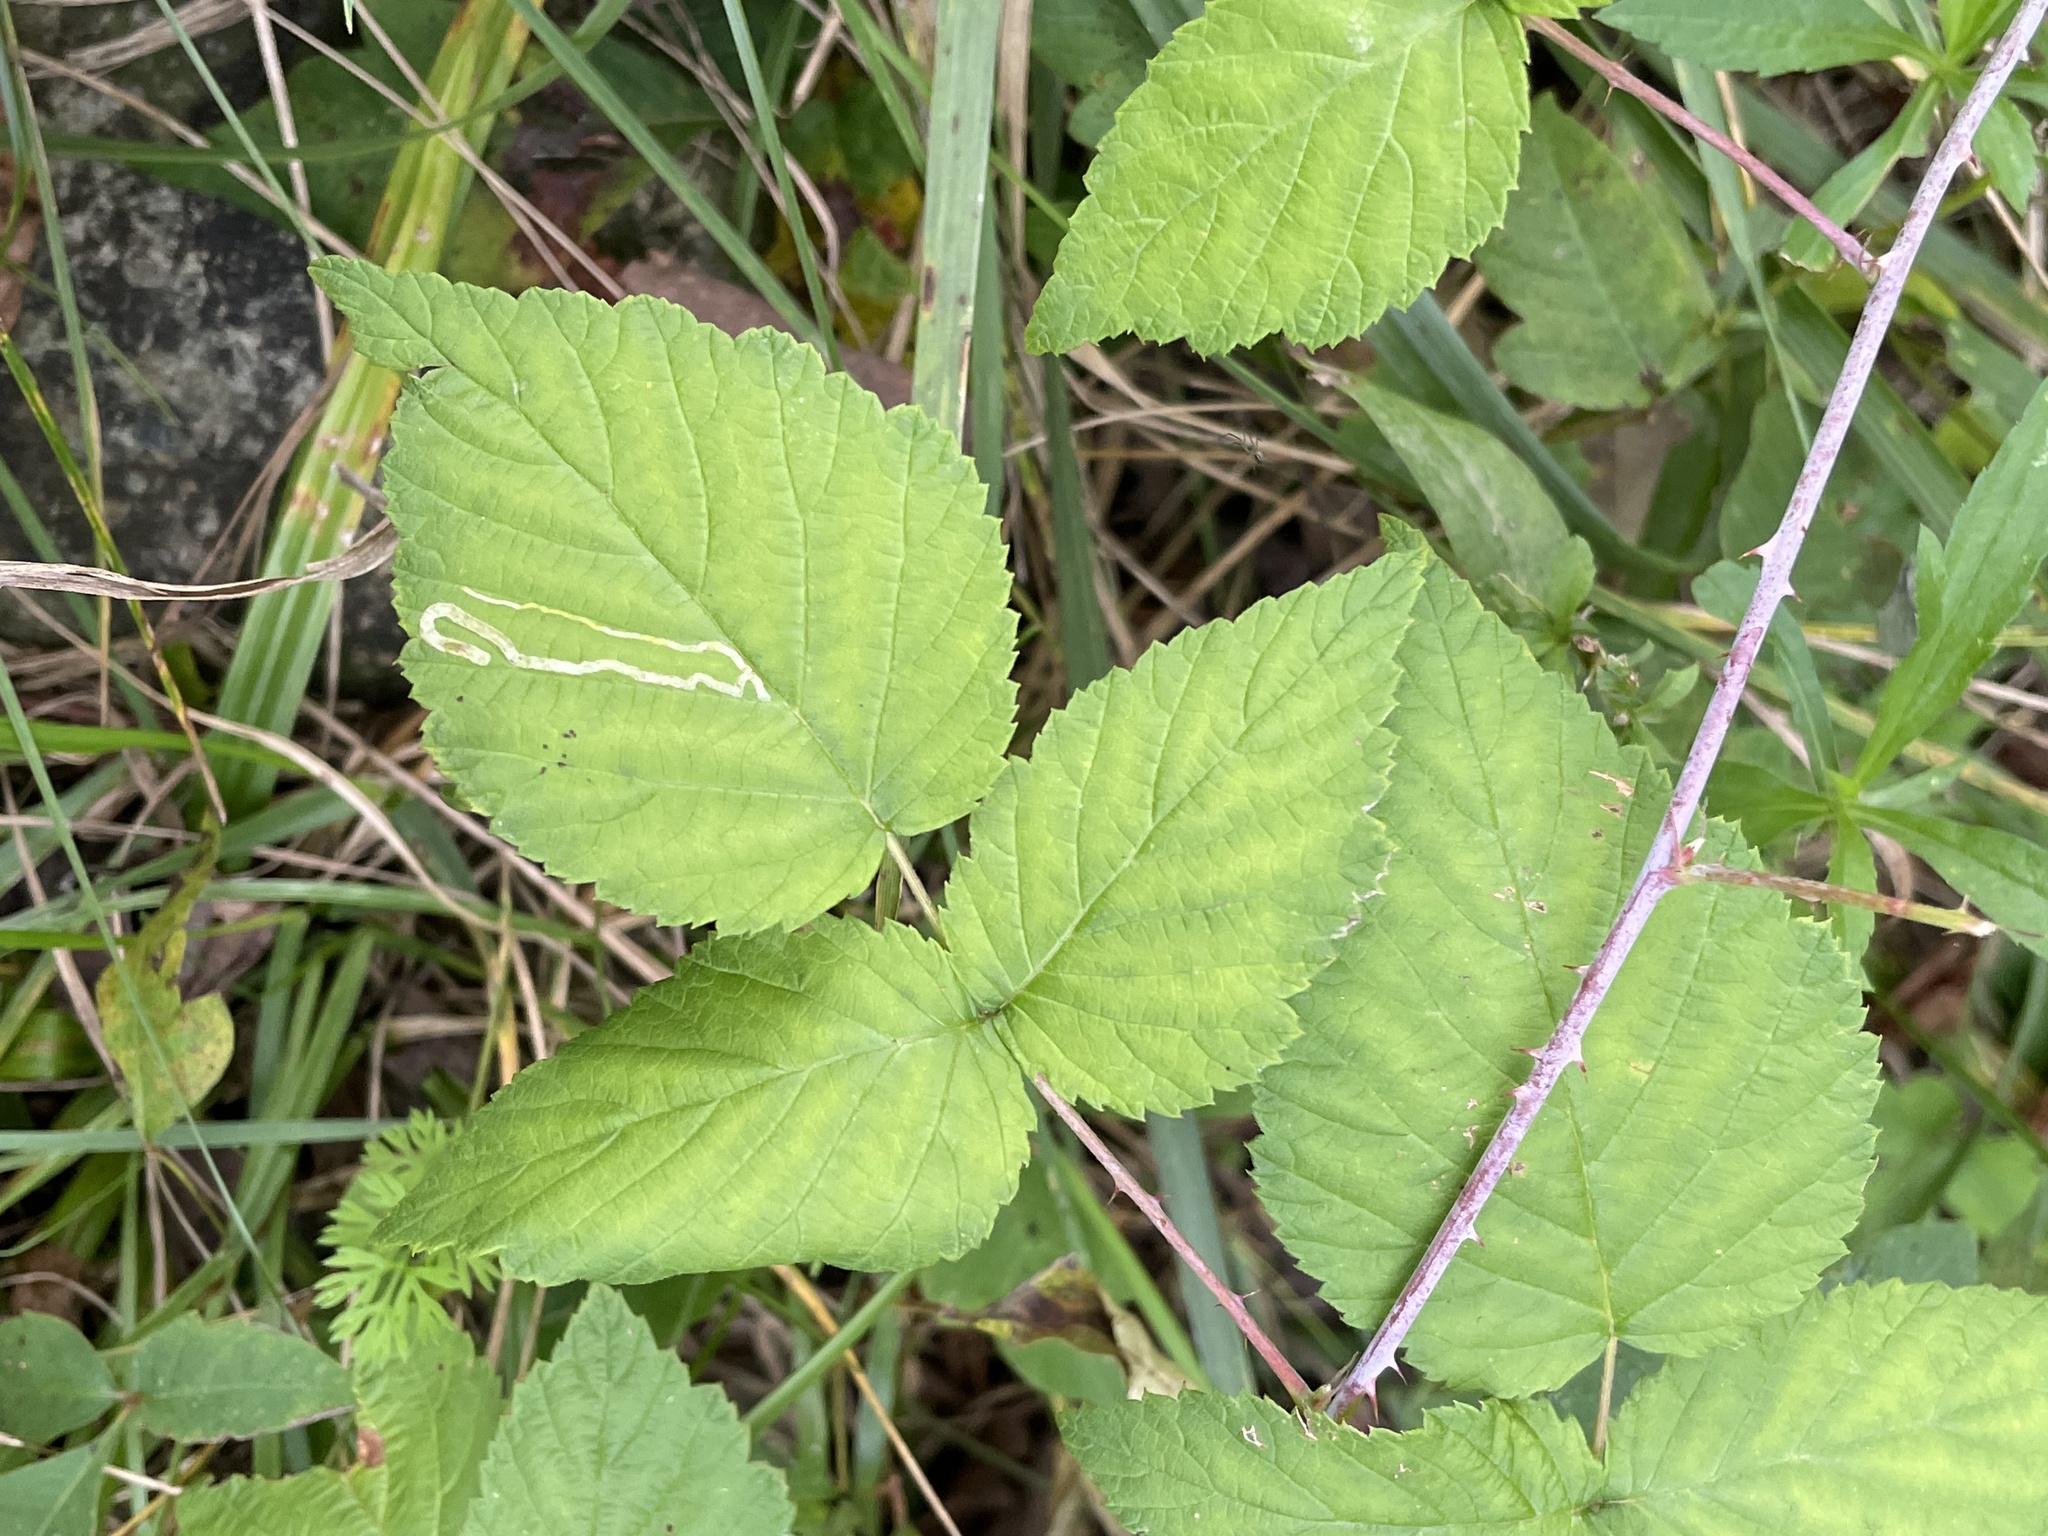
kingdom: Animalia
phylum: Arthropoda
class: Insecta
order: Diptera
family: Agromyzidae
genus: Agromyza
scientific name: Agromyza vockerothi
